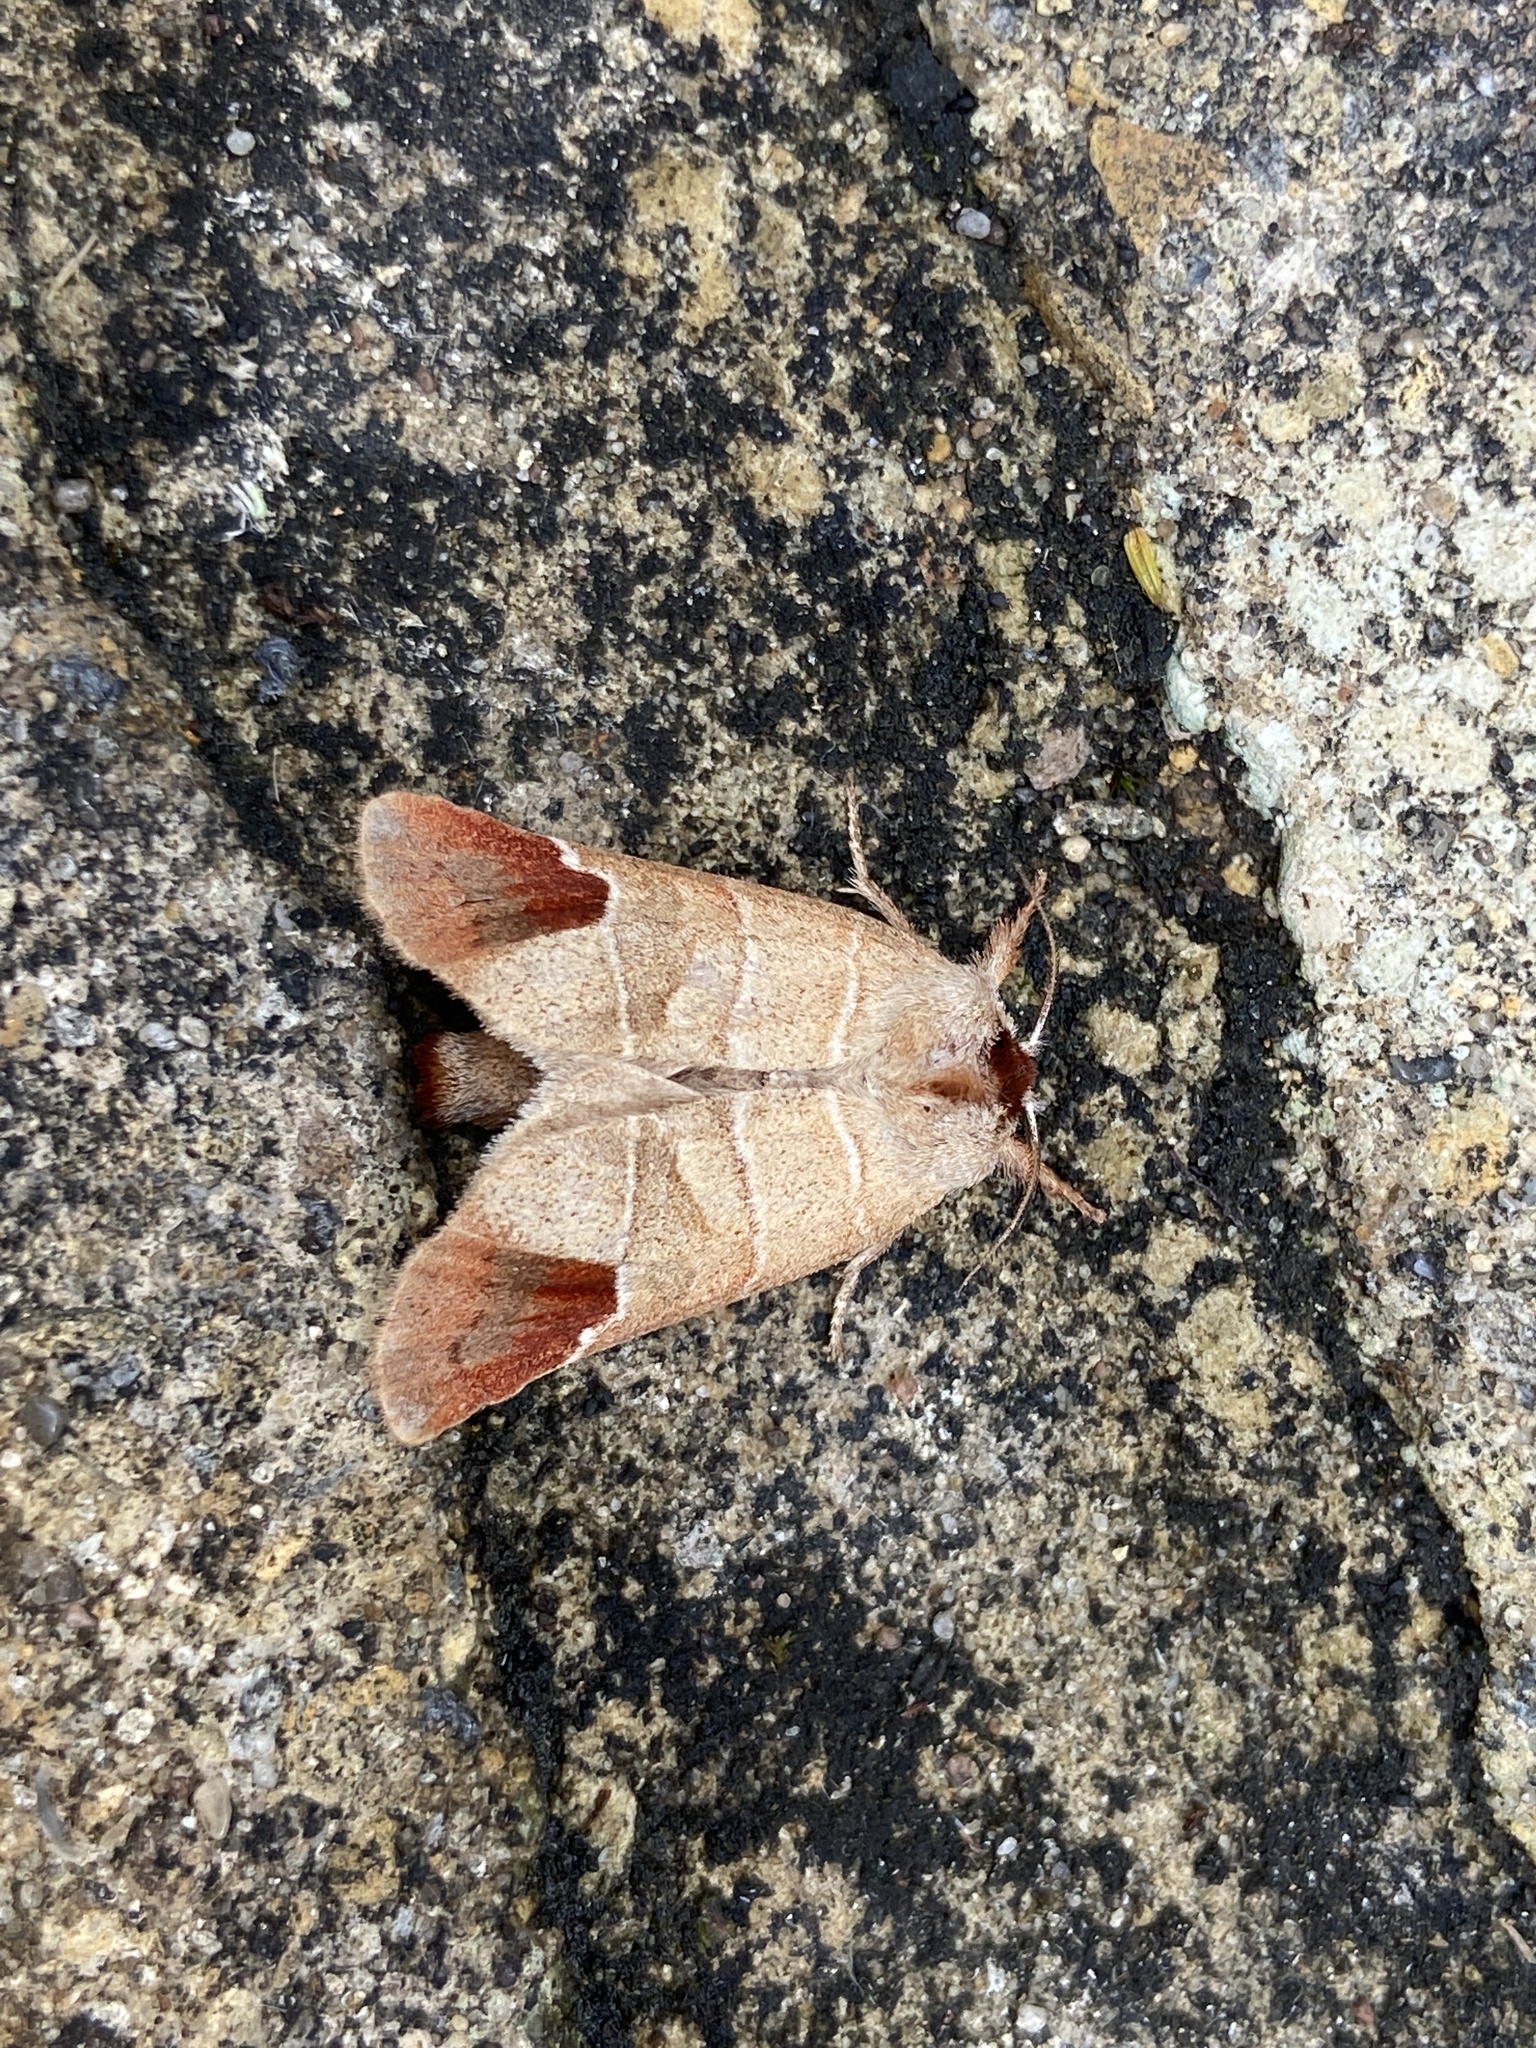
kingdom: Animalia
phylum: Arthropoda
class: Insecta
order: Lepidoptera
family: Notodontidae
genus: Clostera
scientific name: Clostera curtula
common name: Chocolate-tip
